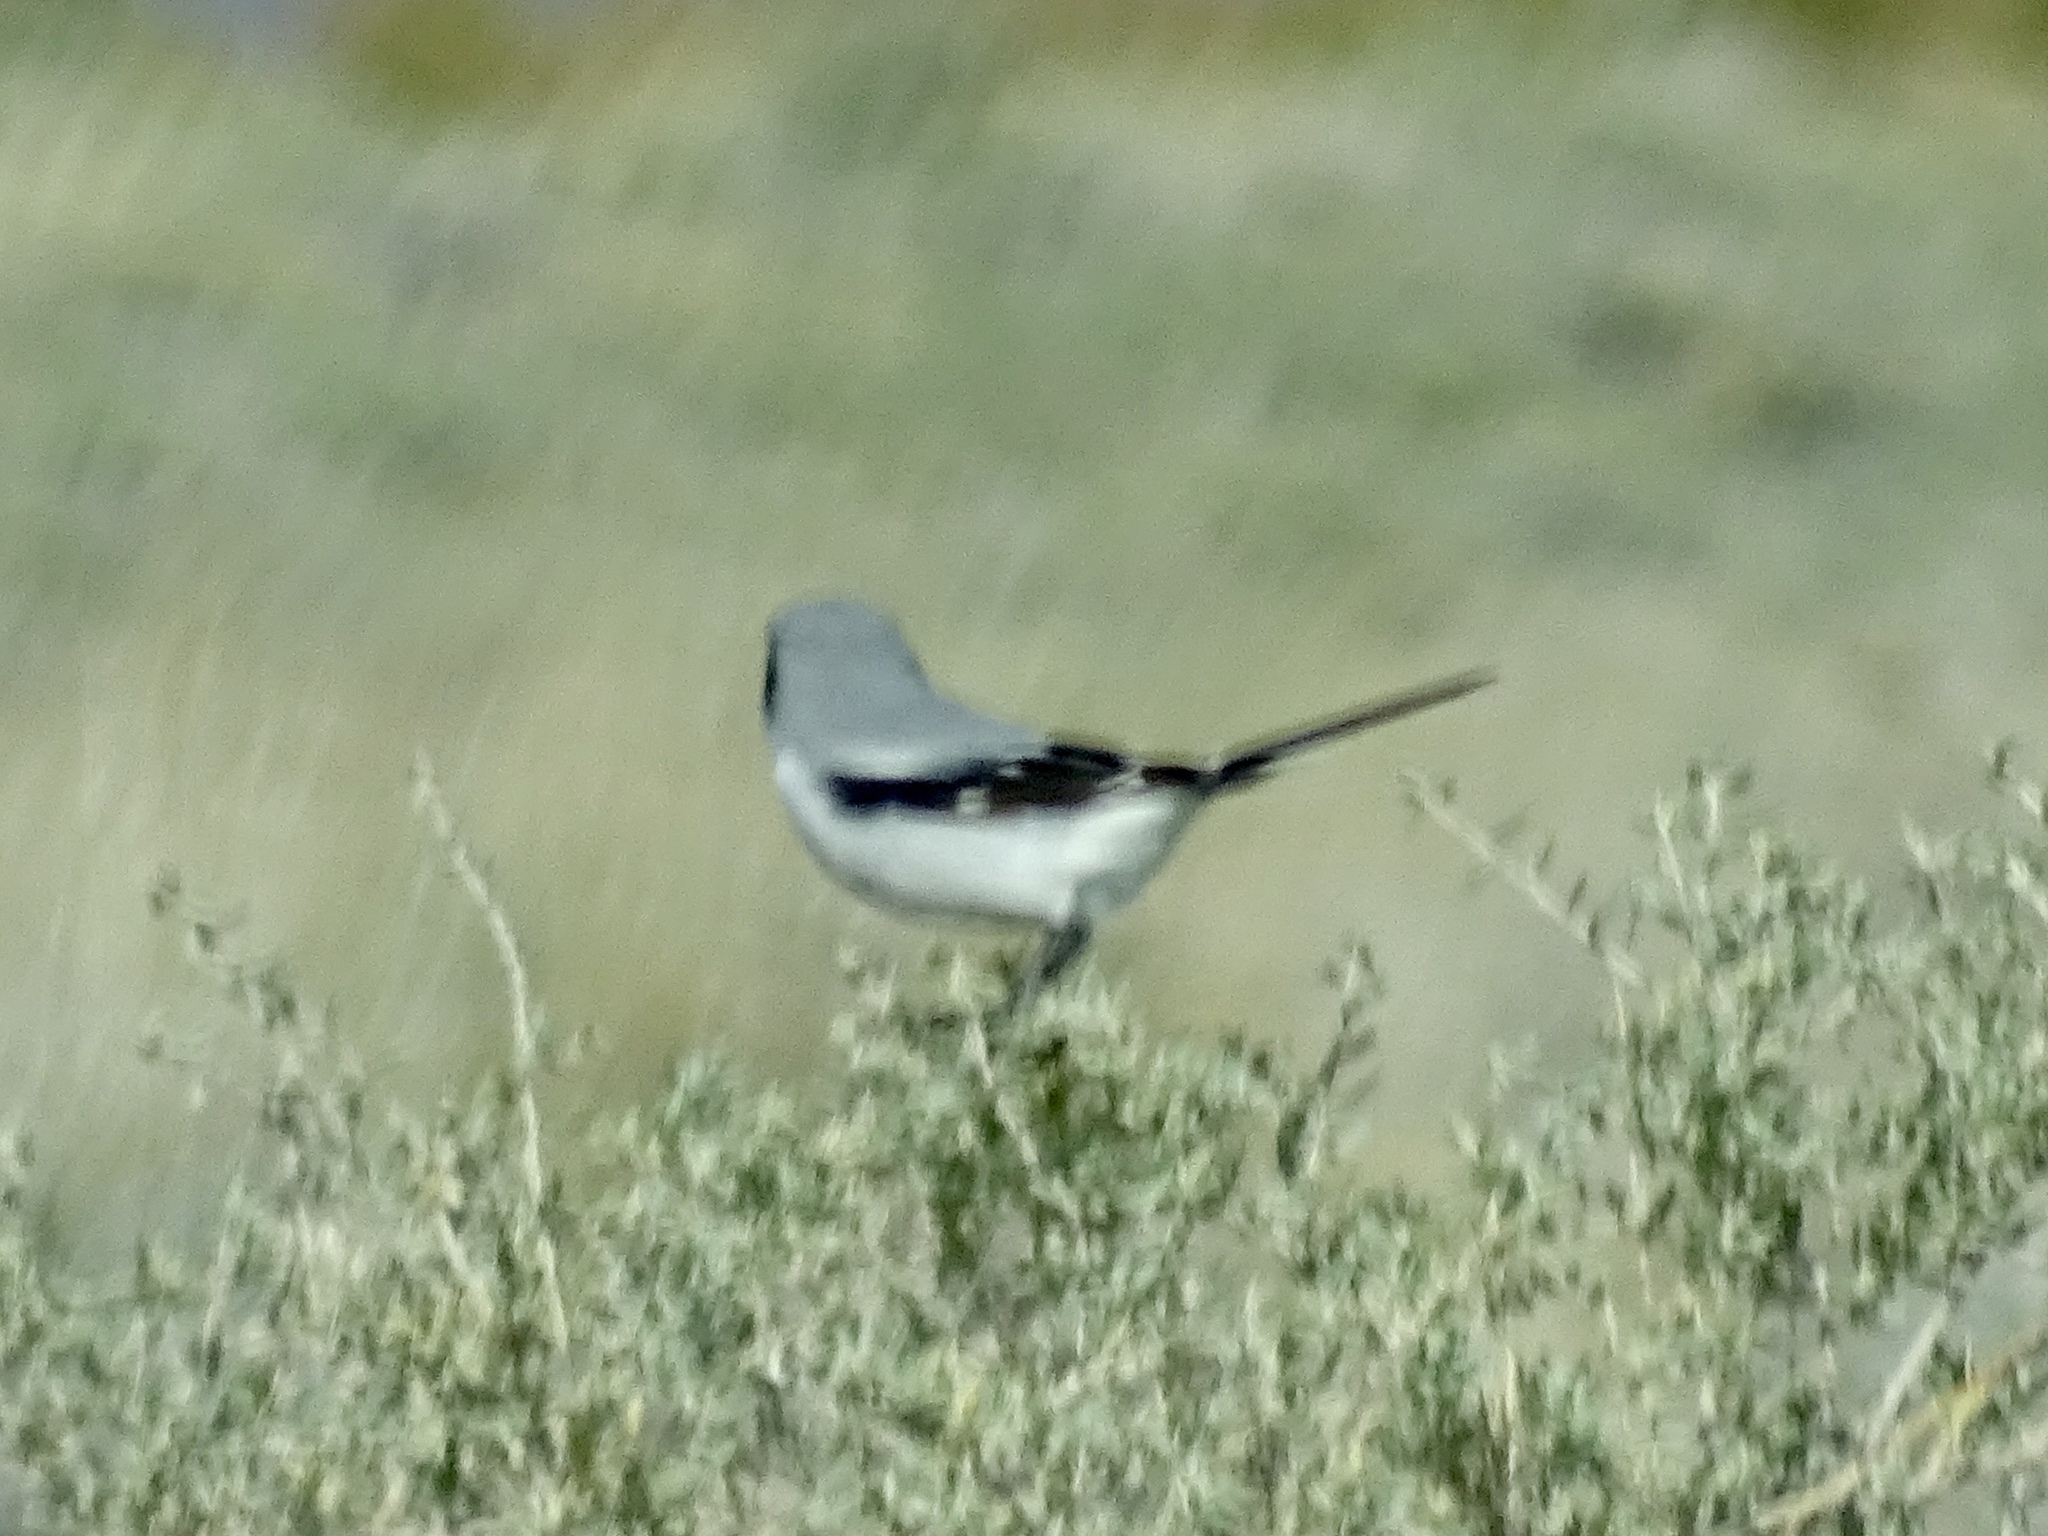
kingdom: Animalia
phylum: Chordata
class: Aves
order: Passeriformes
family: Laniidae
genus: Lanius
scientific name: Lanius ludovicianus
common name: Loggerhead shrike
